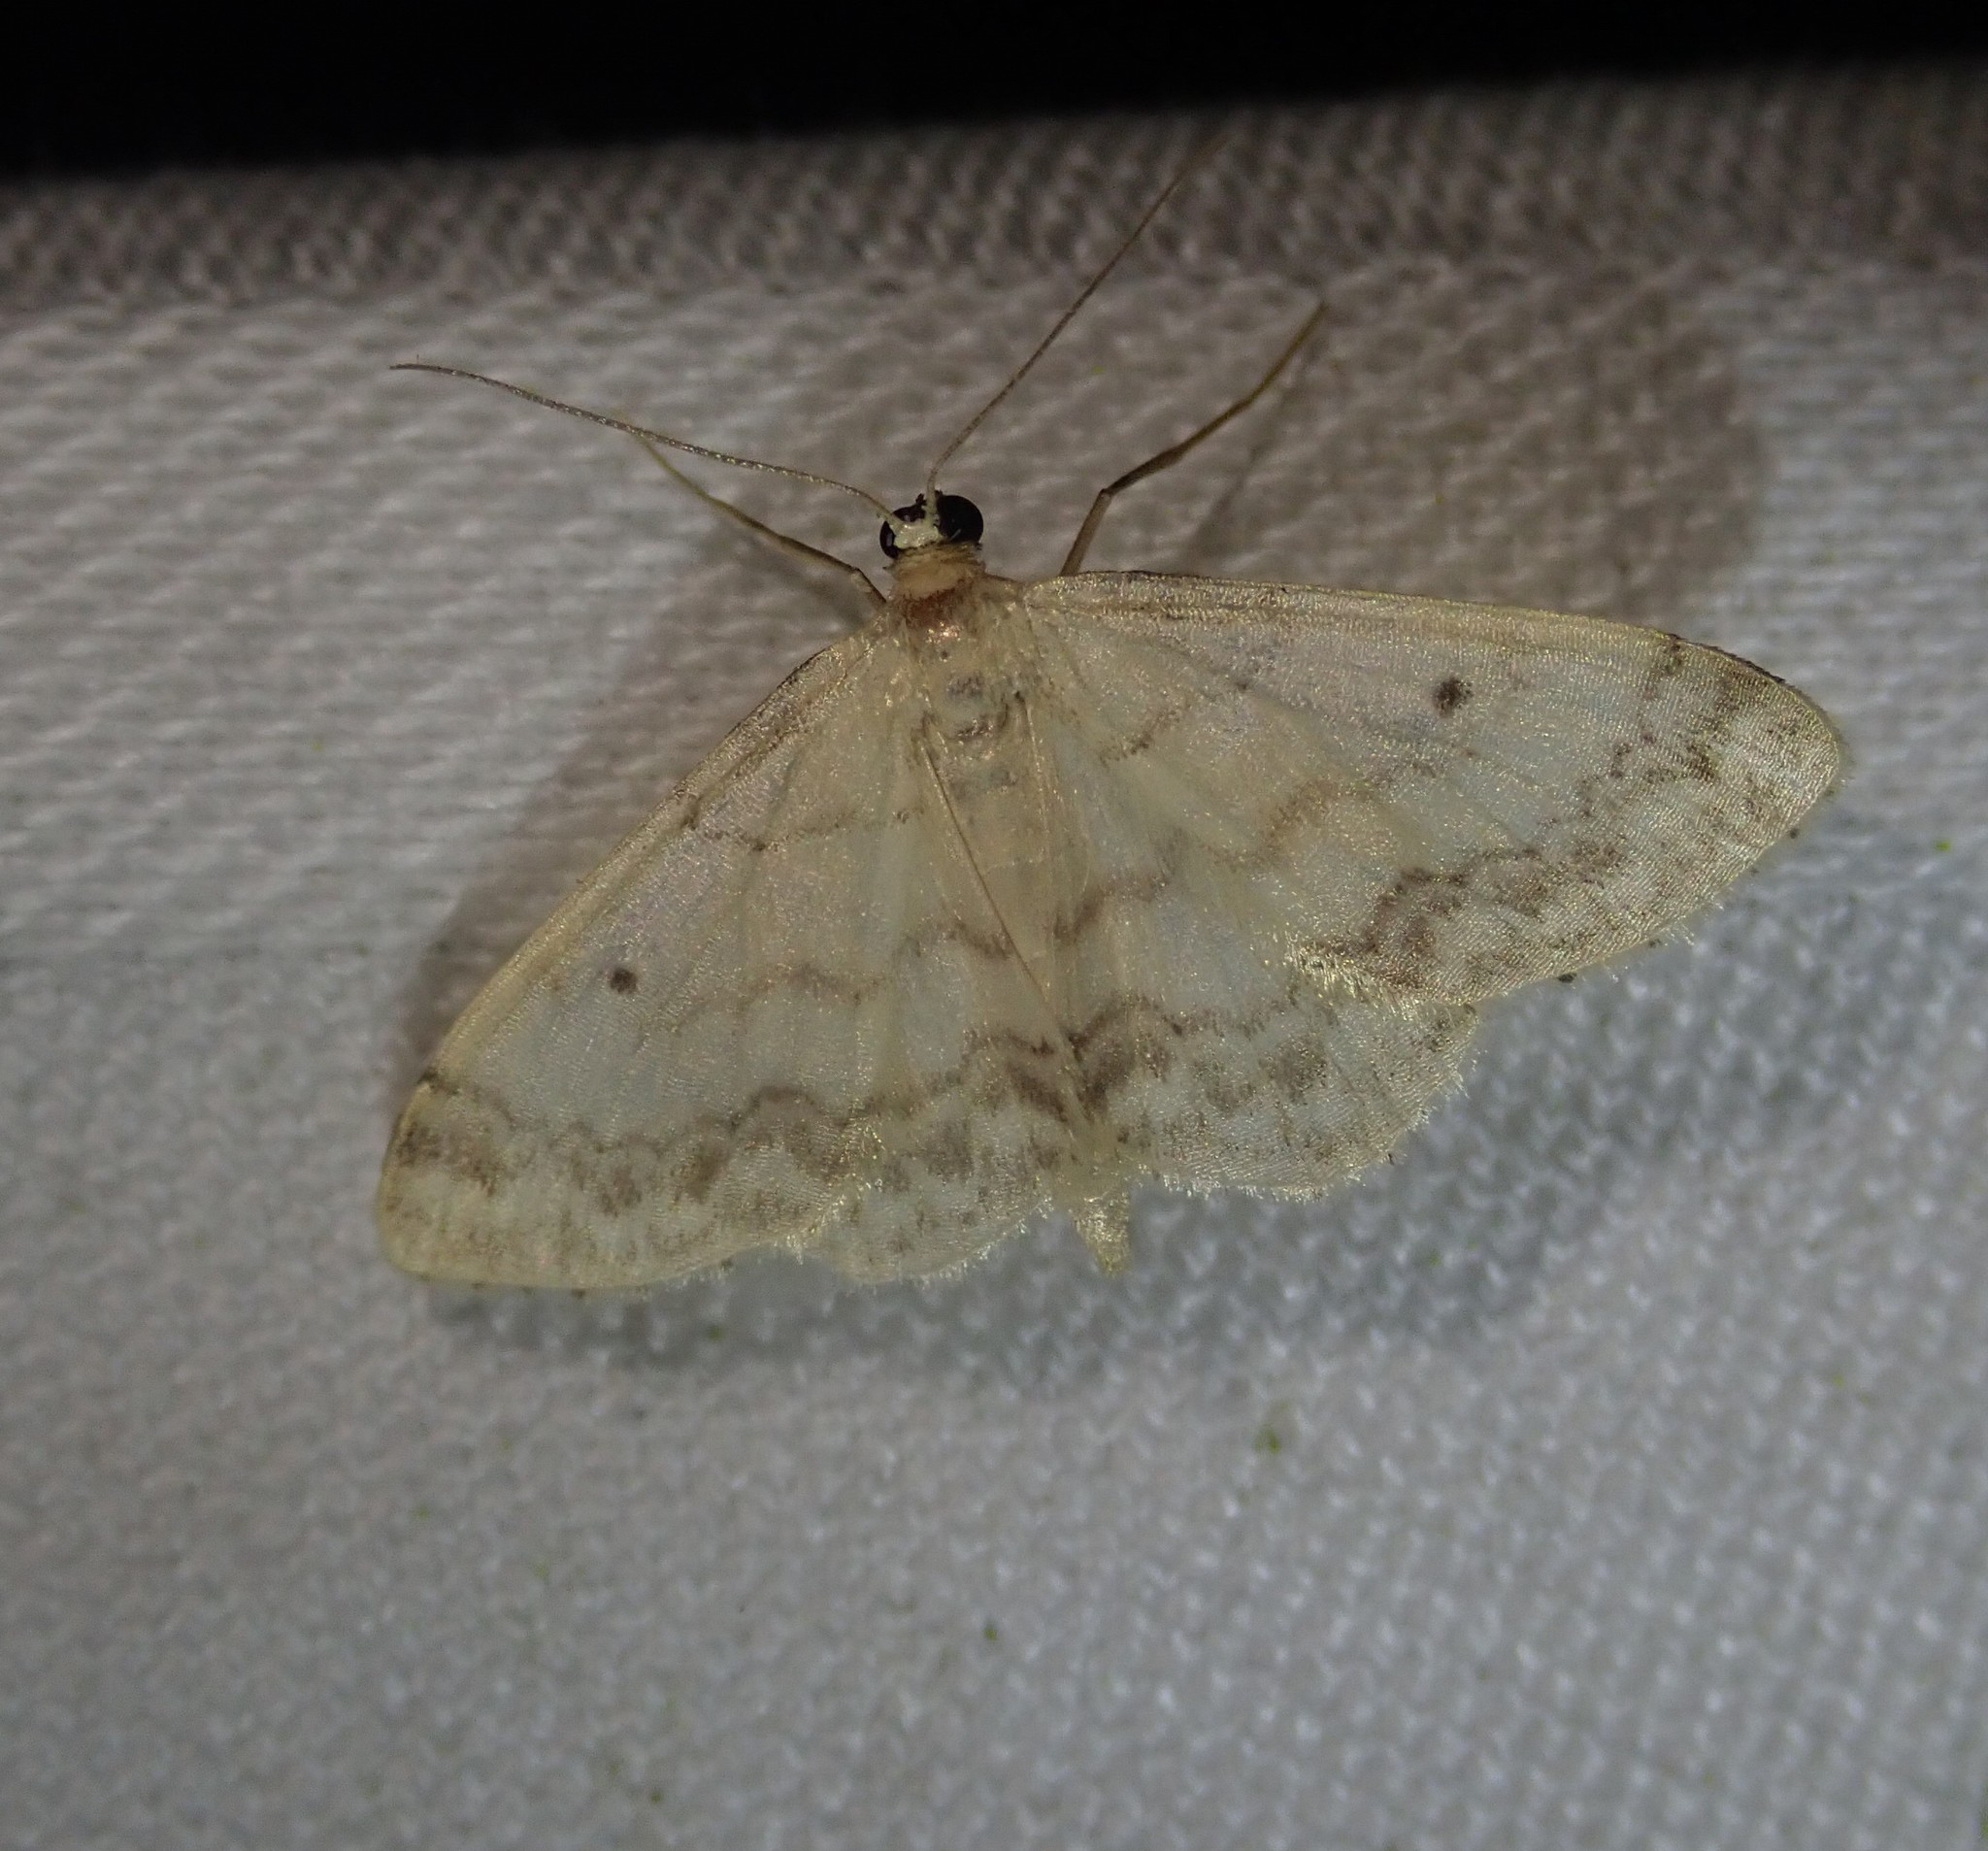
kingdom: Animalia
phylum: Arthropoda
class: Insecta
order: Lepidoptera
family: Geometridae
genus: Idaea
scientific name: Idaea biselata
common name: Small fan-footed wave
